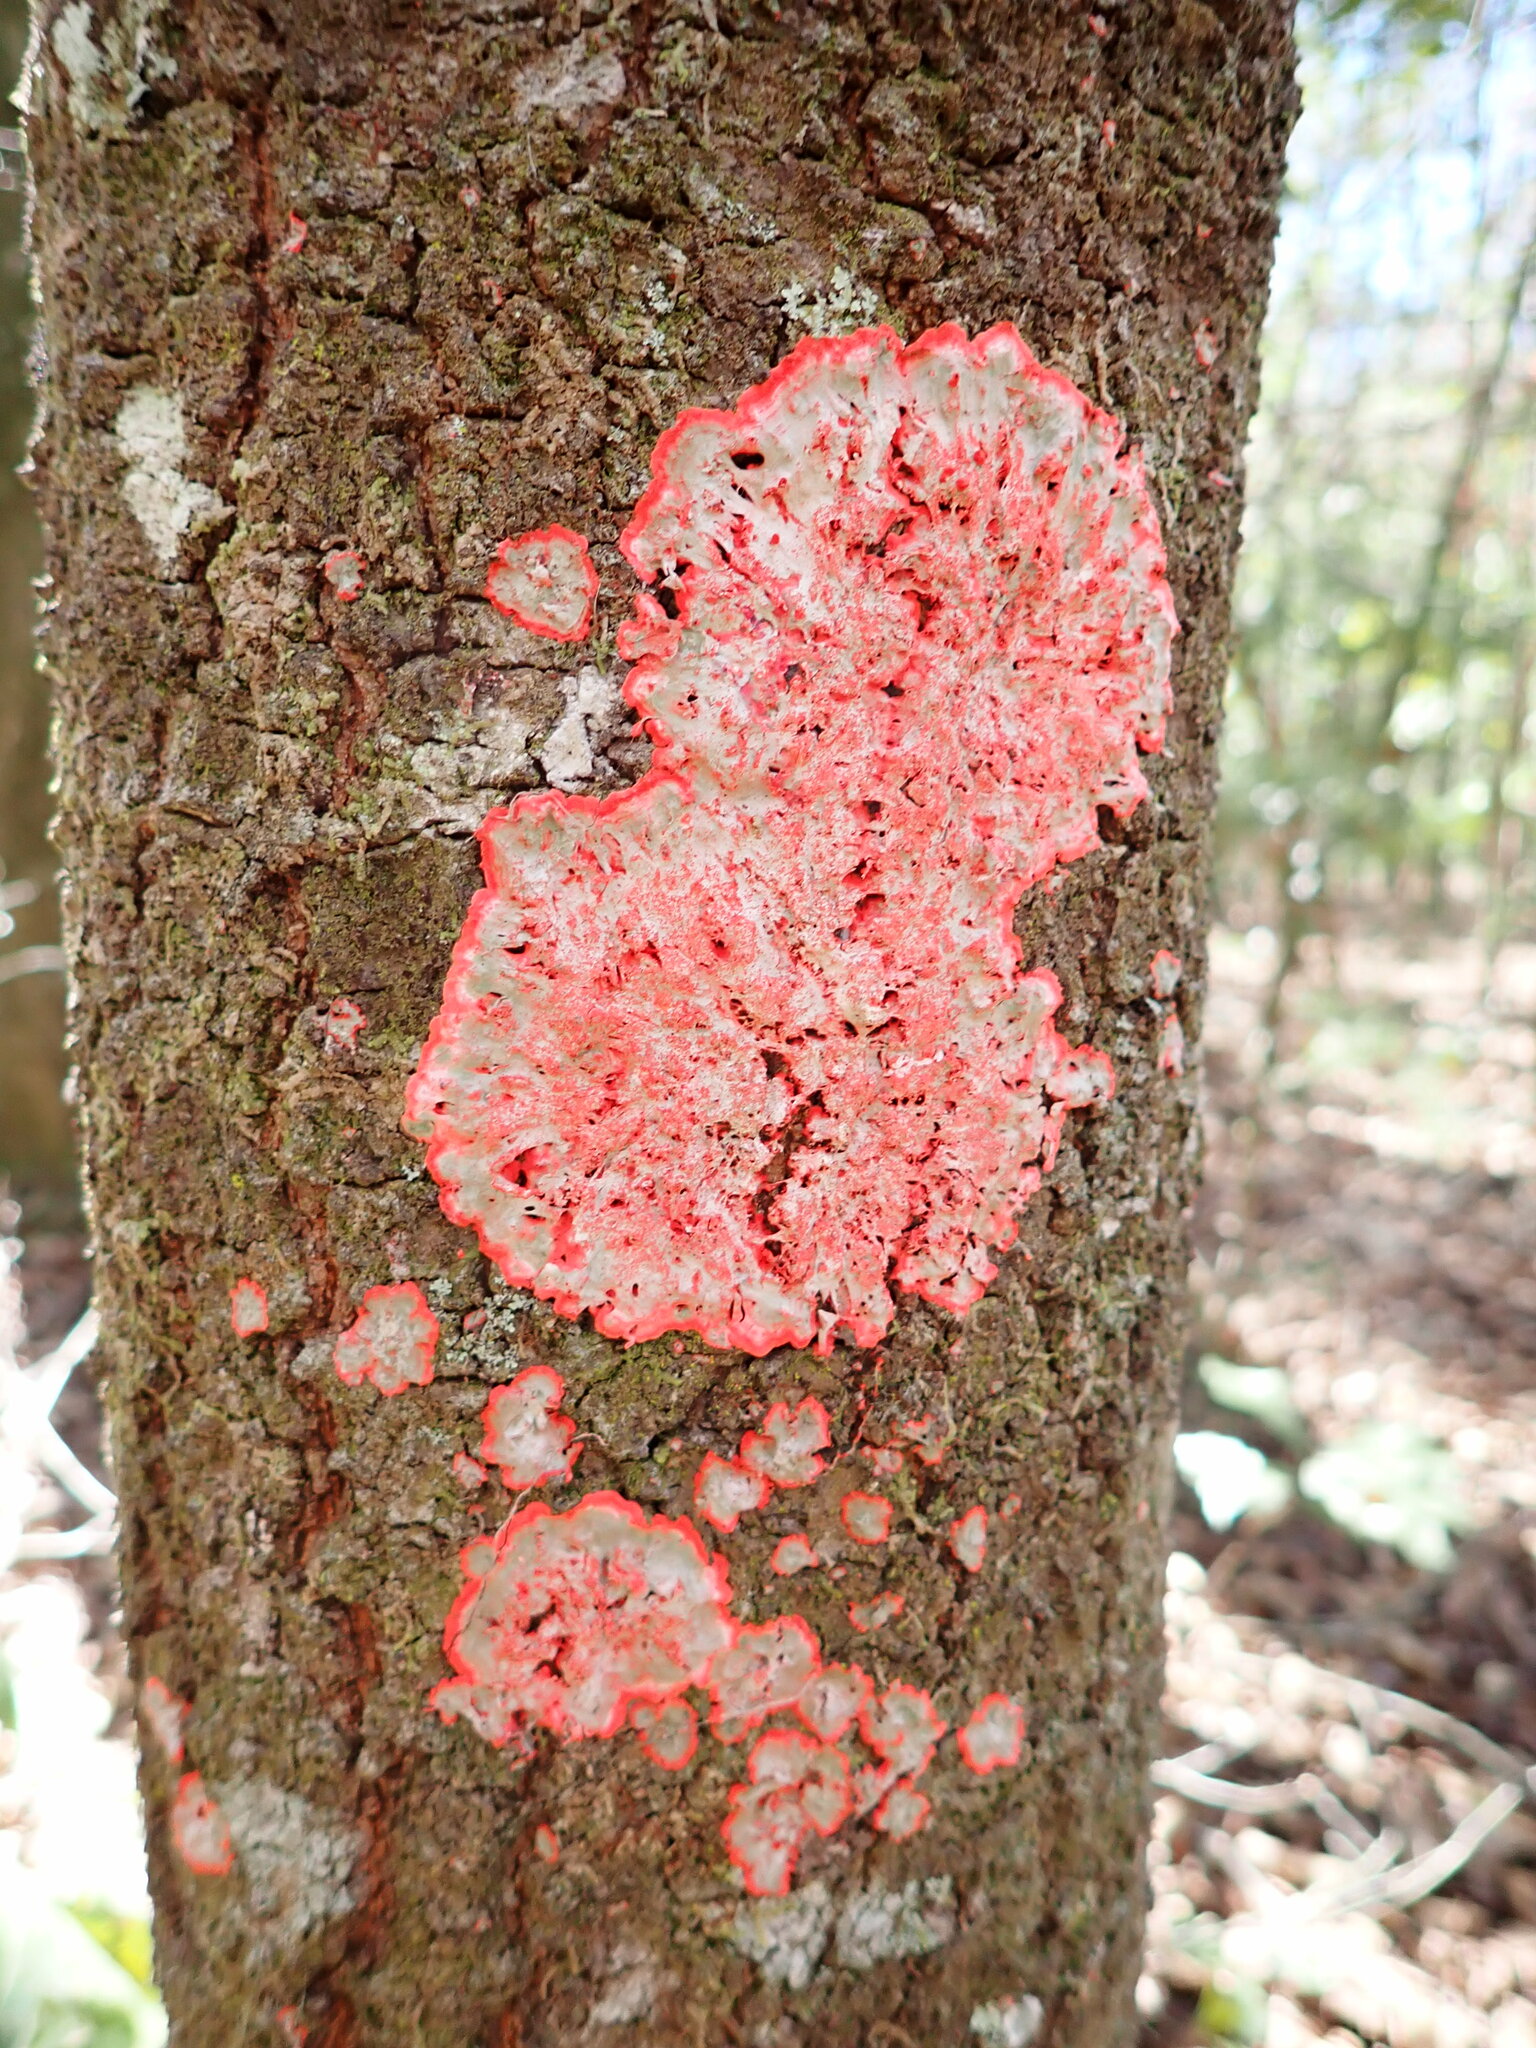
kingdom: Fungi
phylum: Ascomycota
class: Arthoniomycetes
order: Arthoniales
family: Arthoniaceae
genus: Herpothallon
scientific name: Herpothallon rubrocinctum
